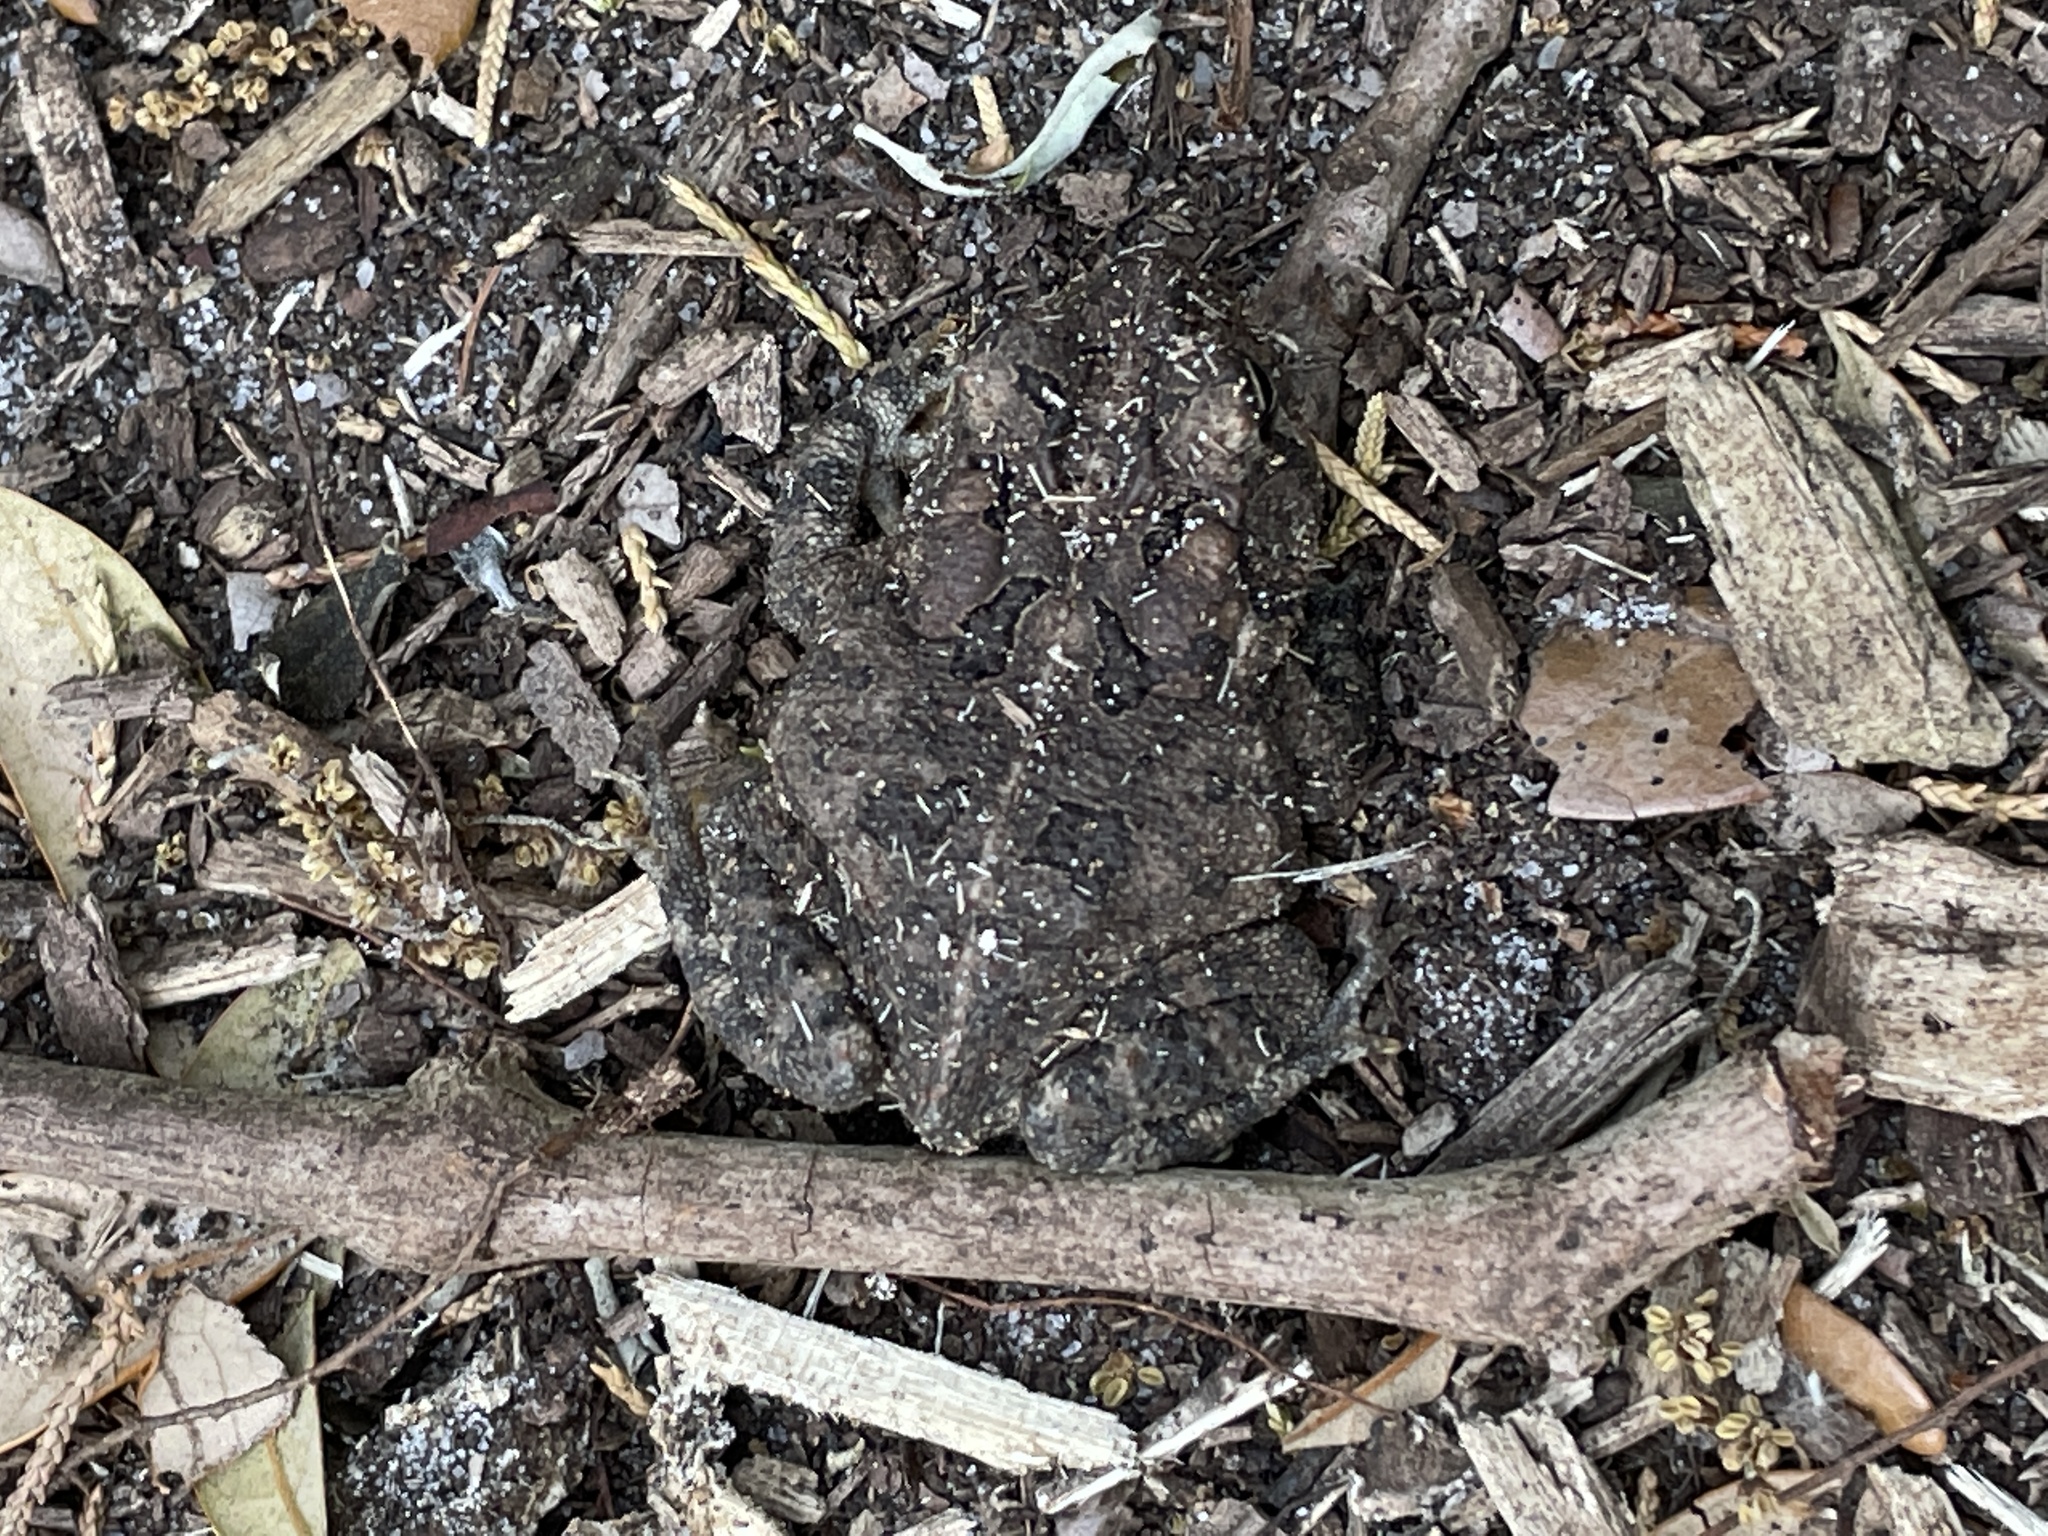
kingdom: Animalia
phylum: Chordata
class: Amphibia
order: Anura
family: Bufonidae
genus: Anaxyrus
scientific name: Anaxyrus terrestris
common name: Southern toad
